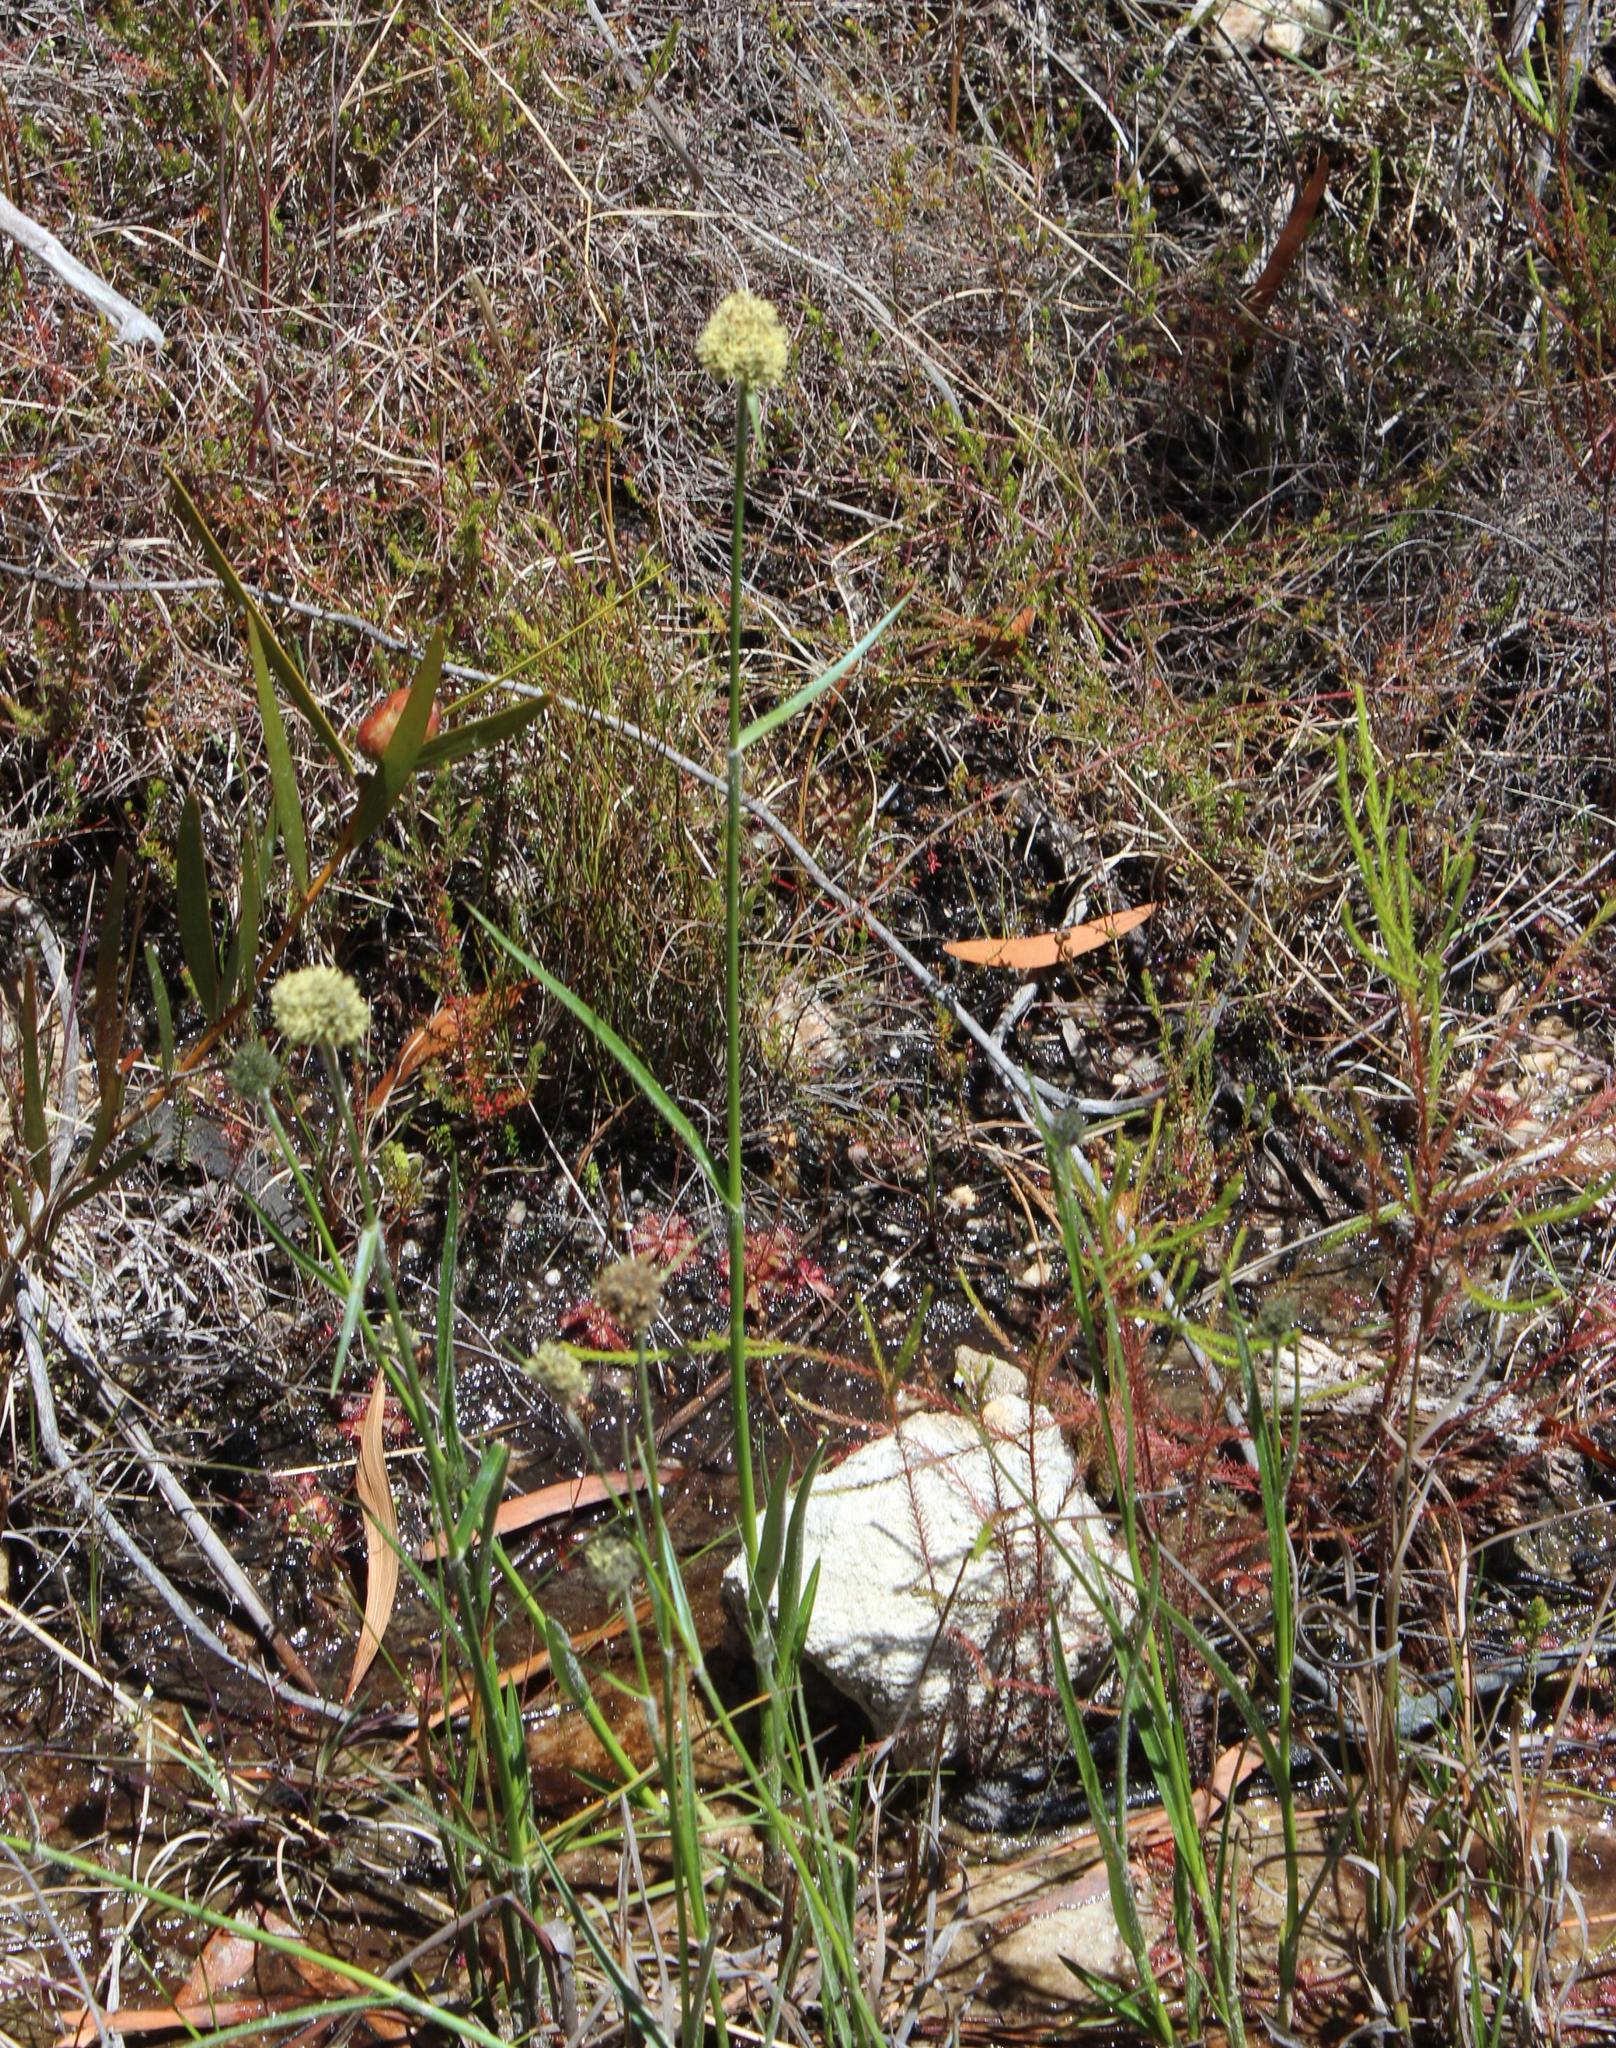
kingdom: Plantae
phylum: Tracheophyta
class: Liliopsida
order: Poales
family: Cyperaceae
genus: Fuirena
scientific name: Fuirena hirsuta
